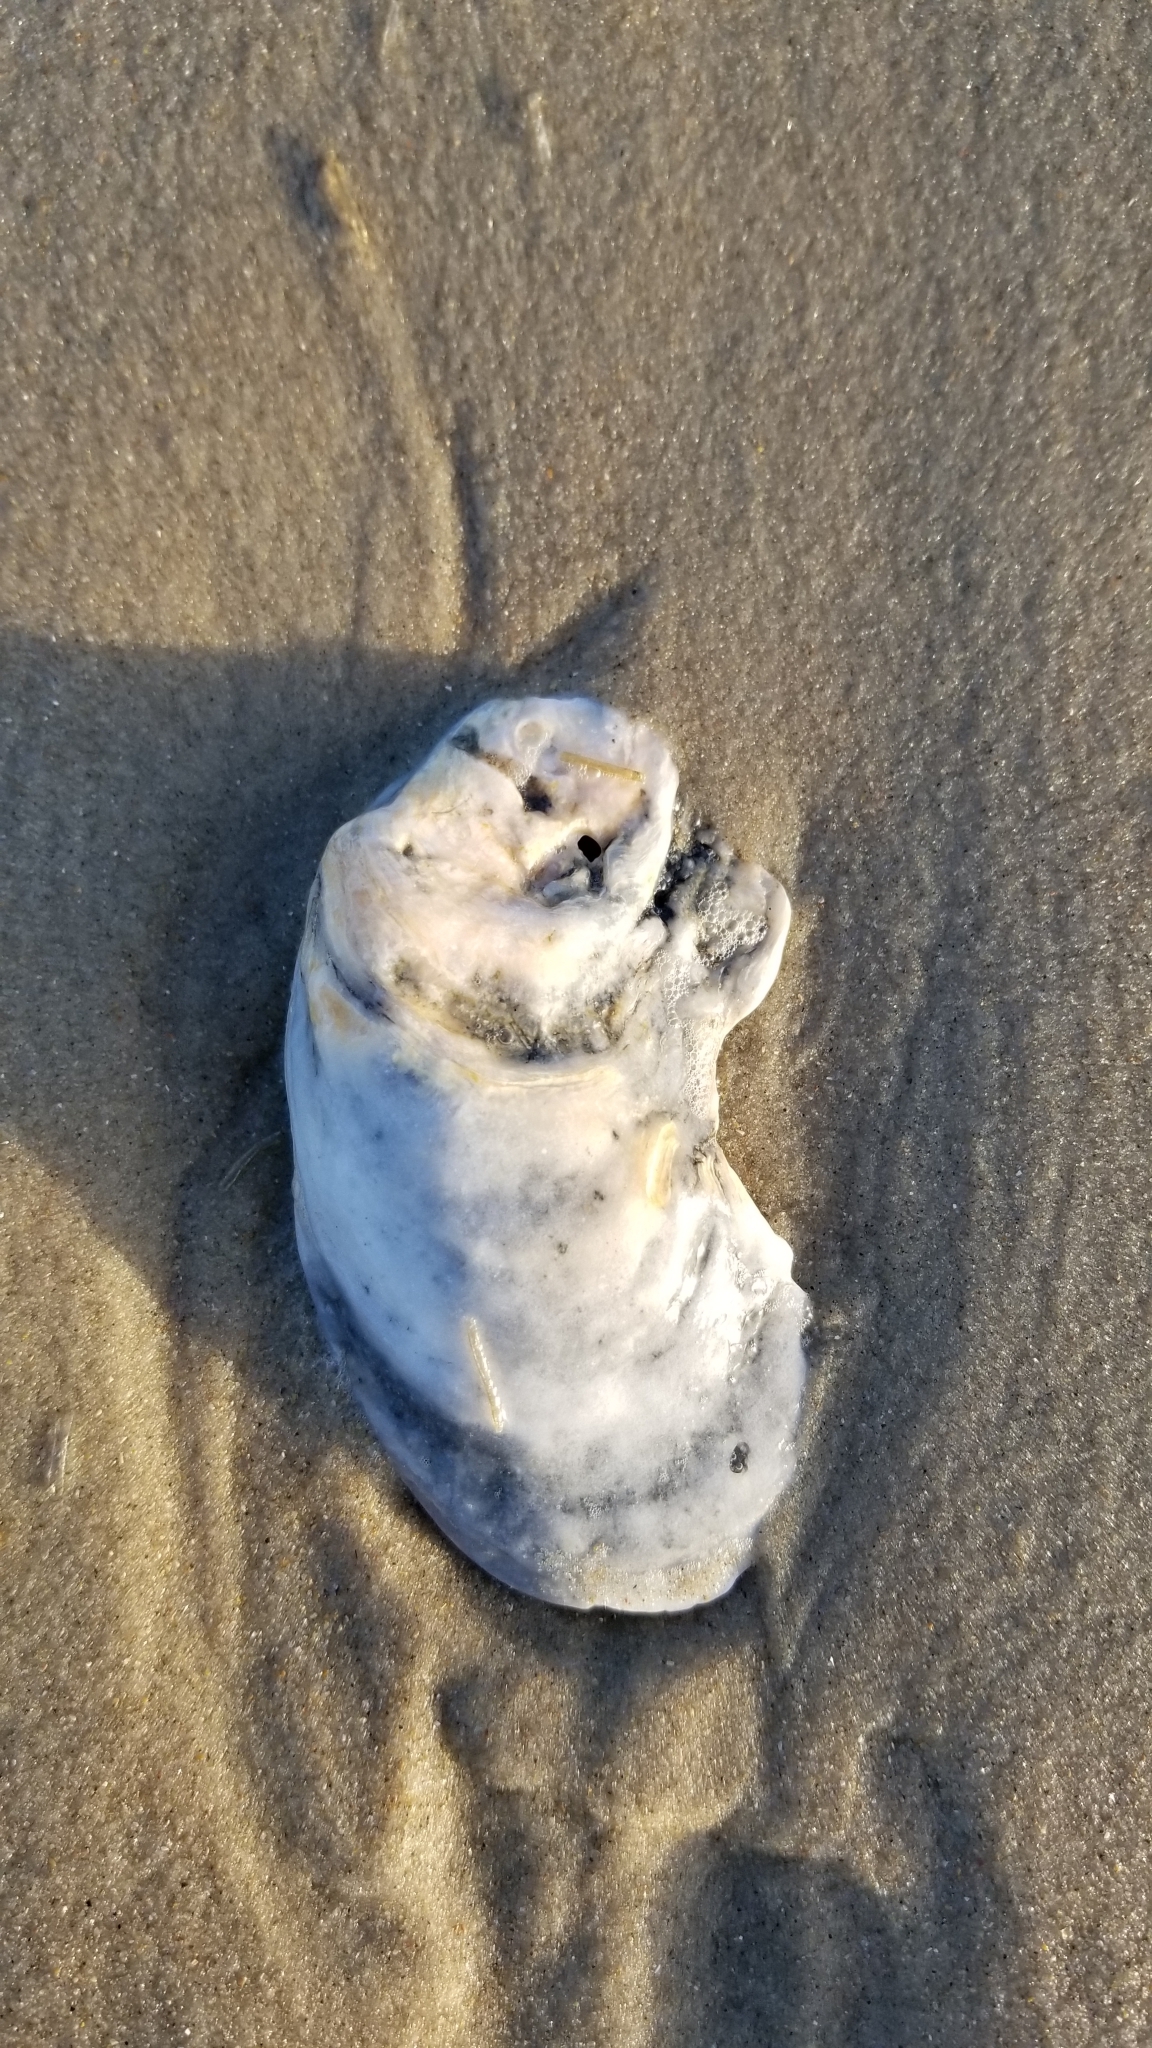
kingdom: Animalia
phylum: Mollusca
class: Bivalvia
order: Ostreida
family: Ostreidae
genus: Crassostrea
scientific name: Crassostrea virginica
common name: American oyster
